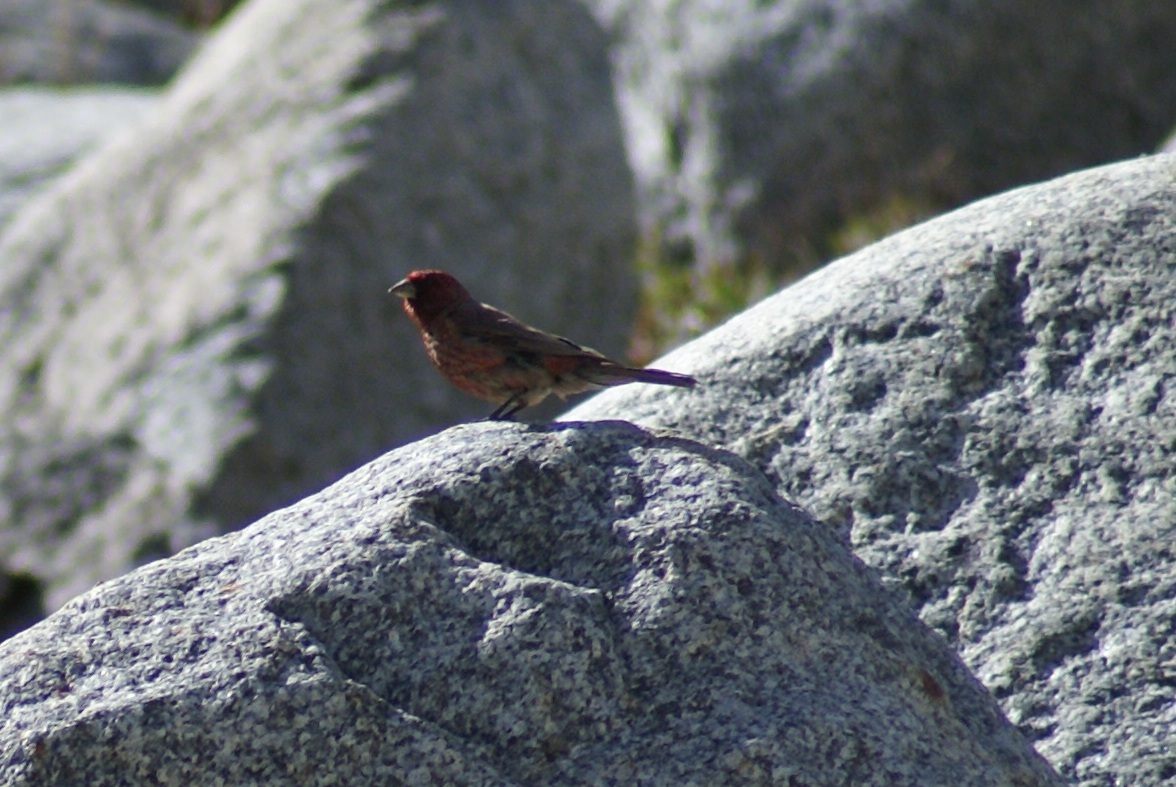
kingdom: Animalia
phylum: Chordata
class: Aves
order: Passeriformes
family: Fringillidae
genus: Carpodacus
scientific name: Carpodacus rubicilla
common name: Great rosefinch
